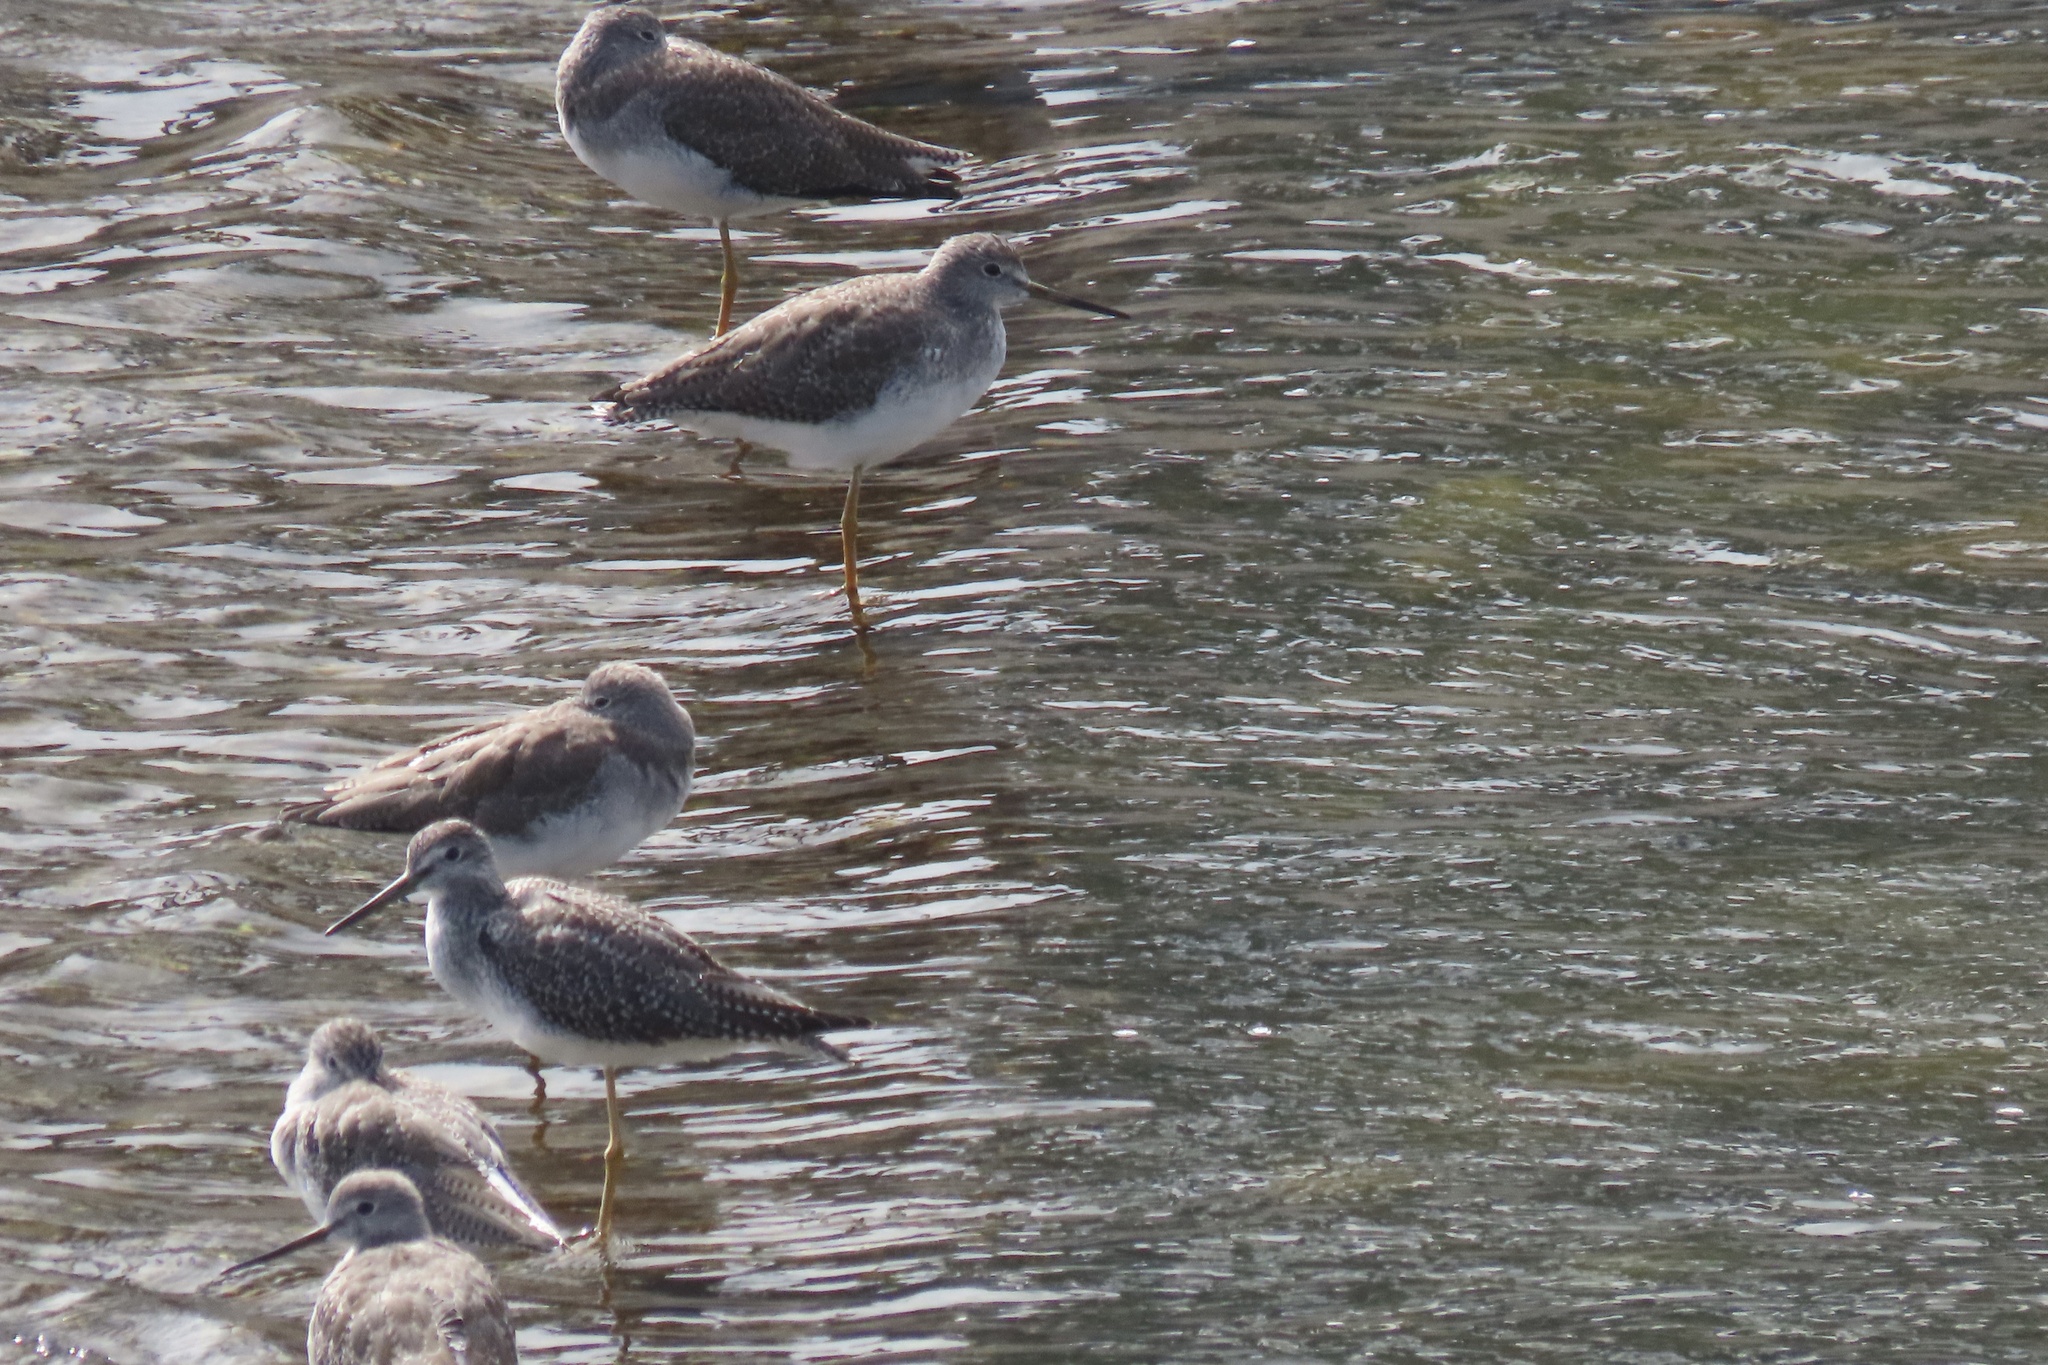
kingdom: Animalia
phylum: Chordata
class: Aves
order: Charadriiformes
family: Scolopacidae
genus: Tringa
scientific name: Tringa melanoleuca
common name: Greater yellowlegs
